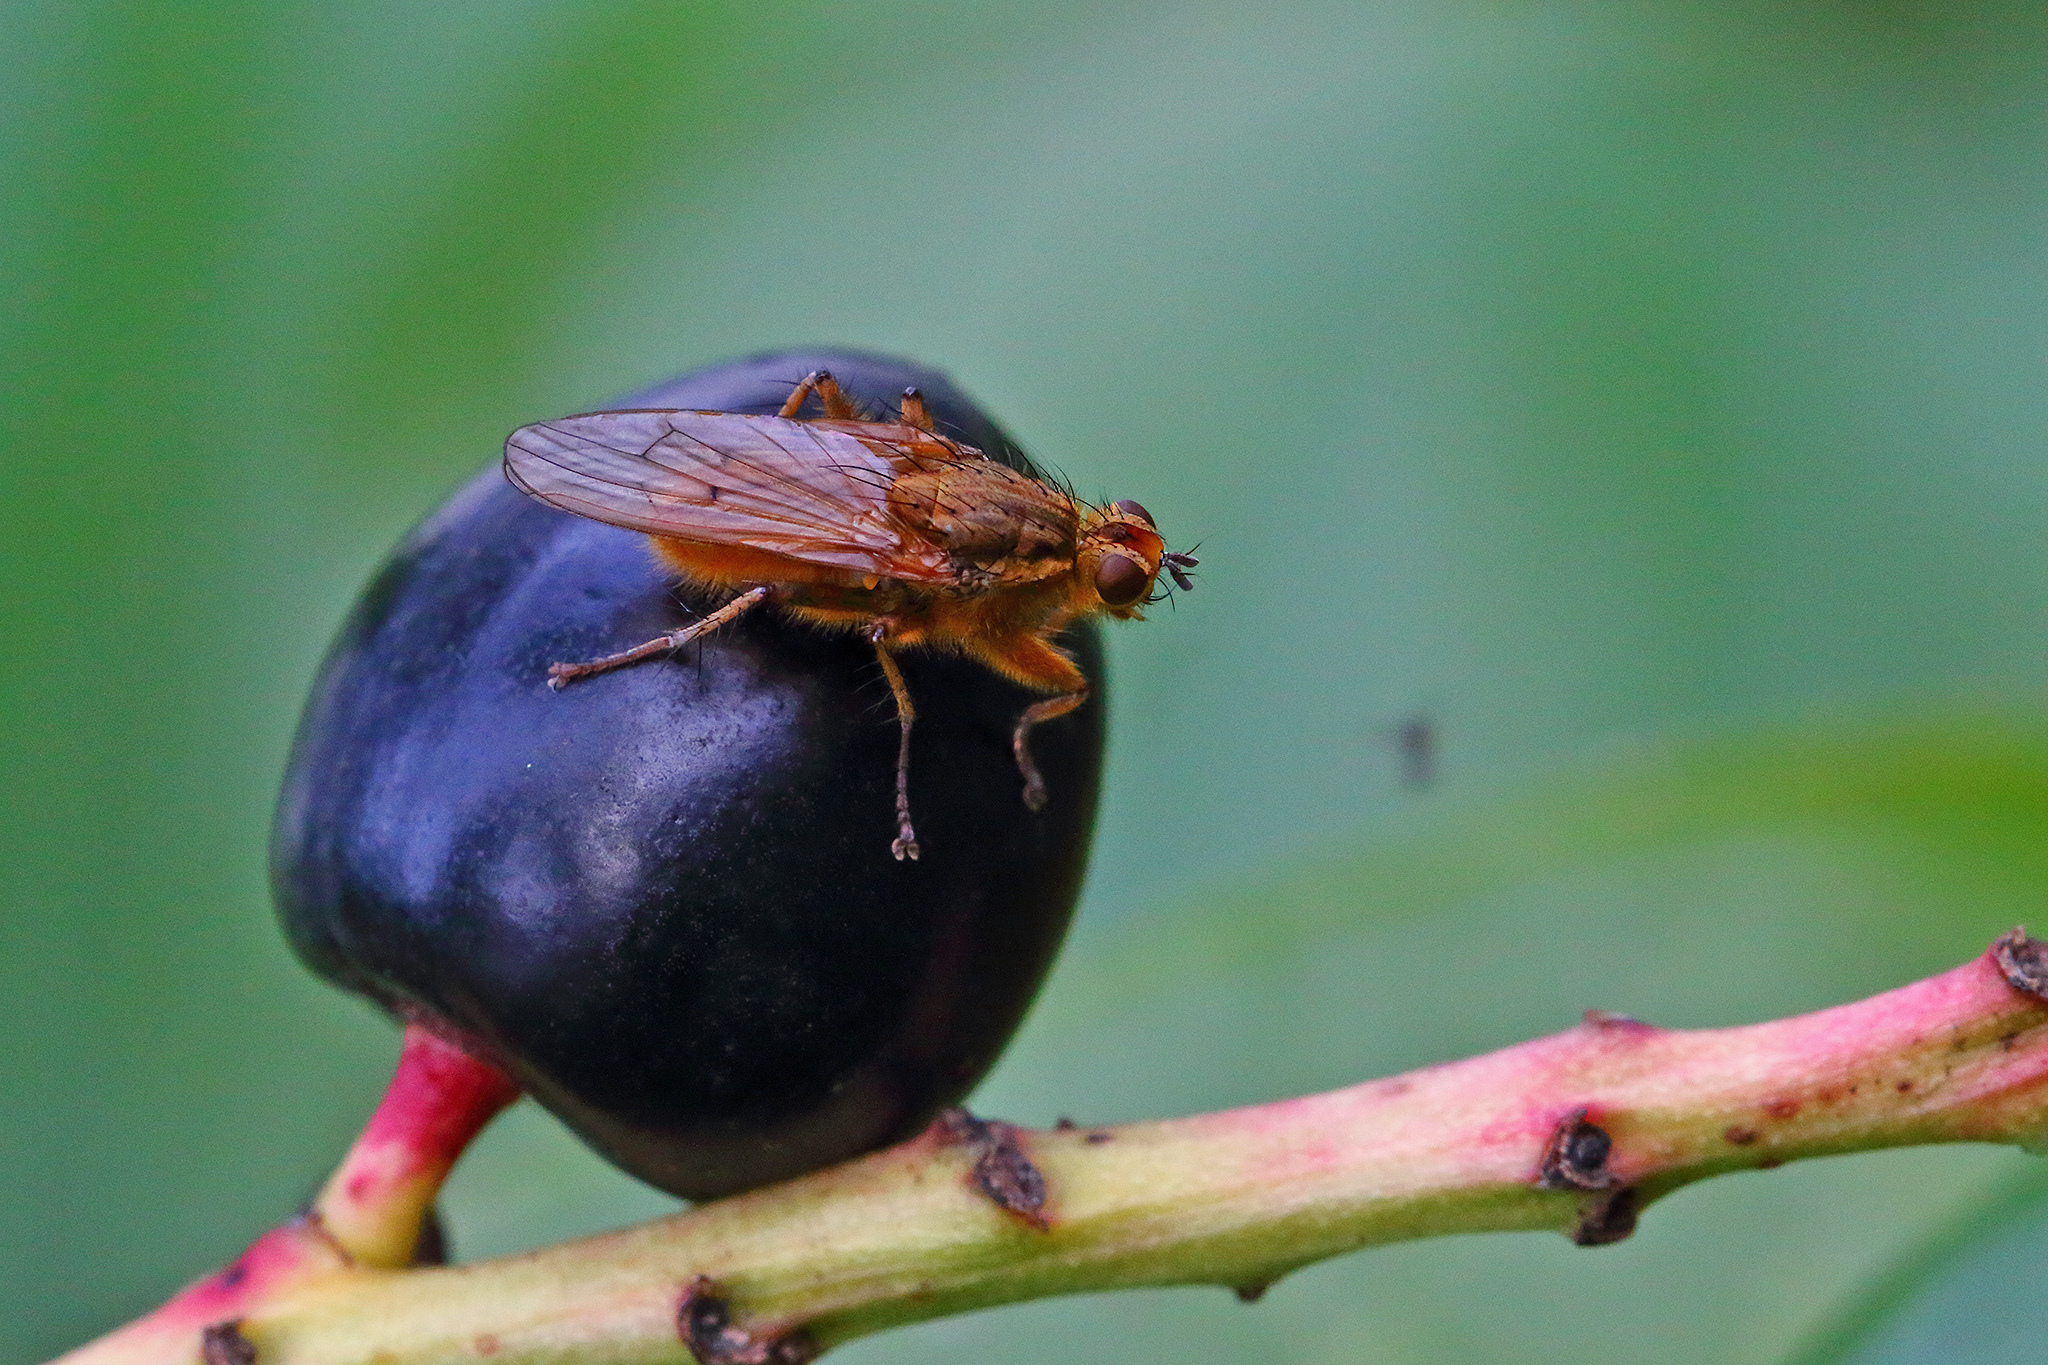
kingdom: Animalia
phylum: Arthropoda
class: Insecta
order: Diptera
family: Scathophagidae
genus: Scathophaga
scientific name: Scathophaga stercoraria
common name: Yellow dung fly
